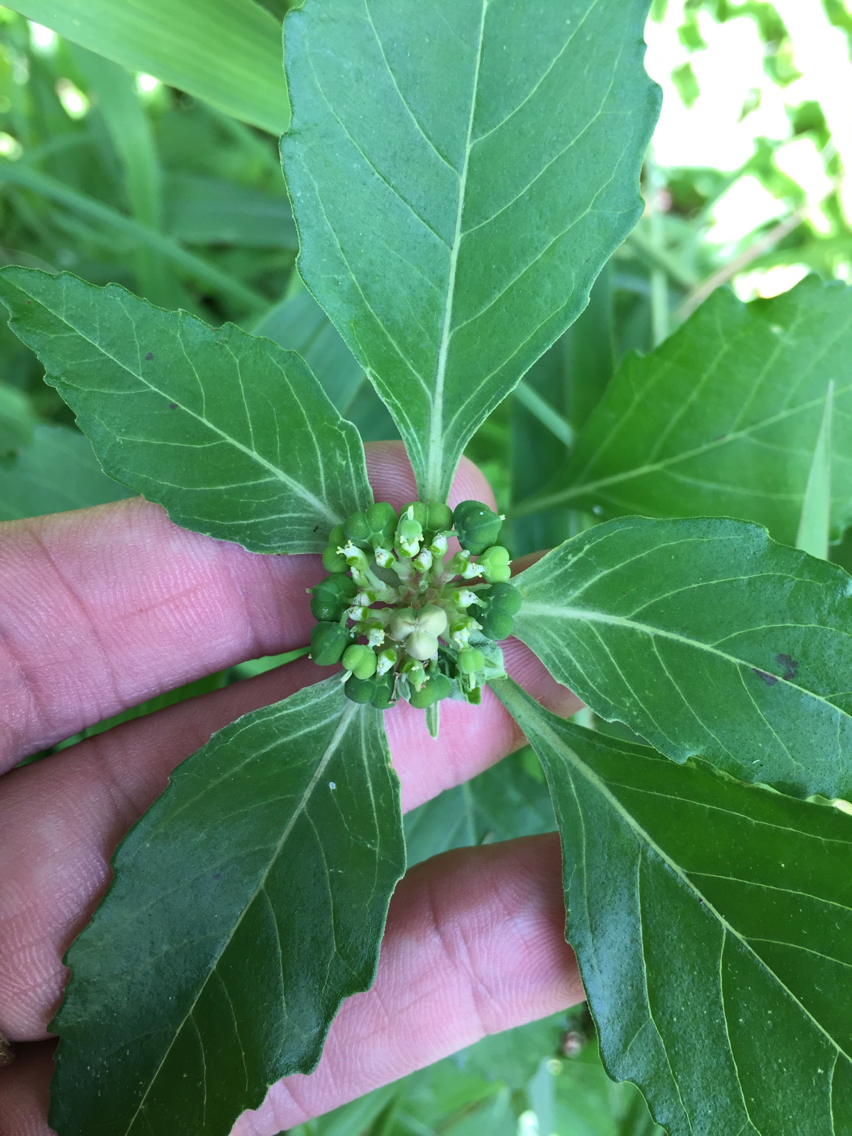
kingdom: Plantae
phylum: Tracheophyta
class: Magnoliopsida
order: Malpighiales
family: Euphorbiaceae
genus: Euphorbia
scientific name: Euphorbia dentata
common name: Dentate spurge
